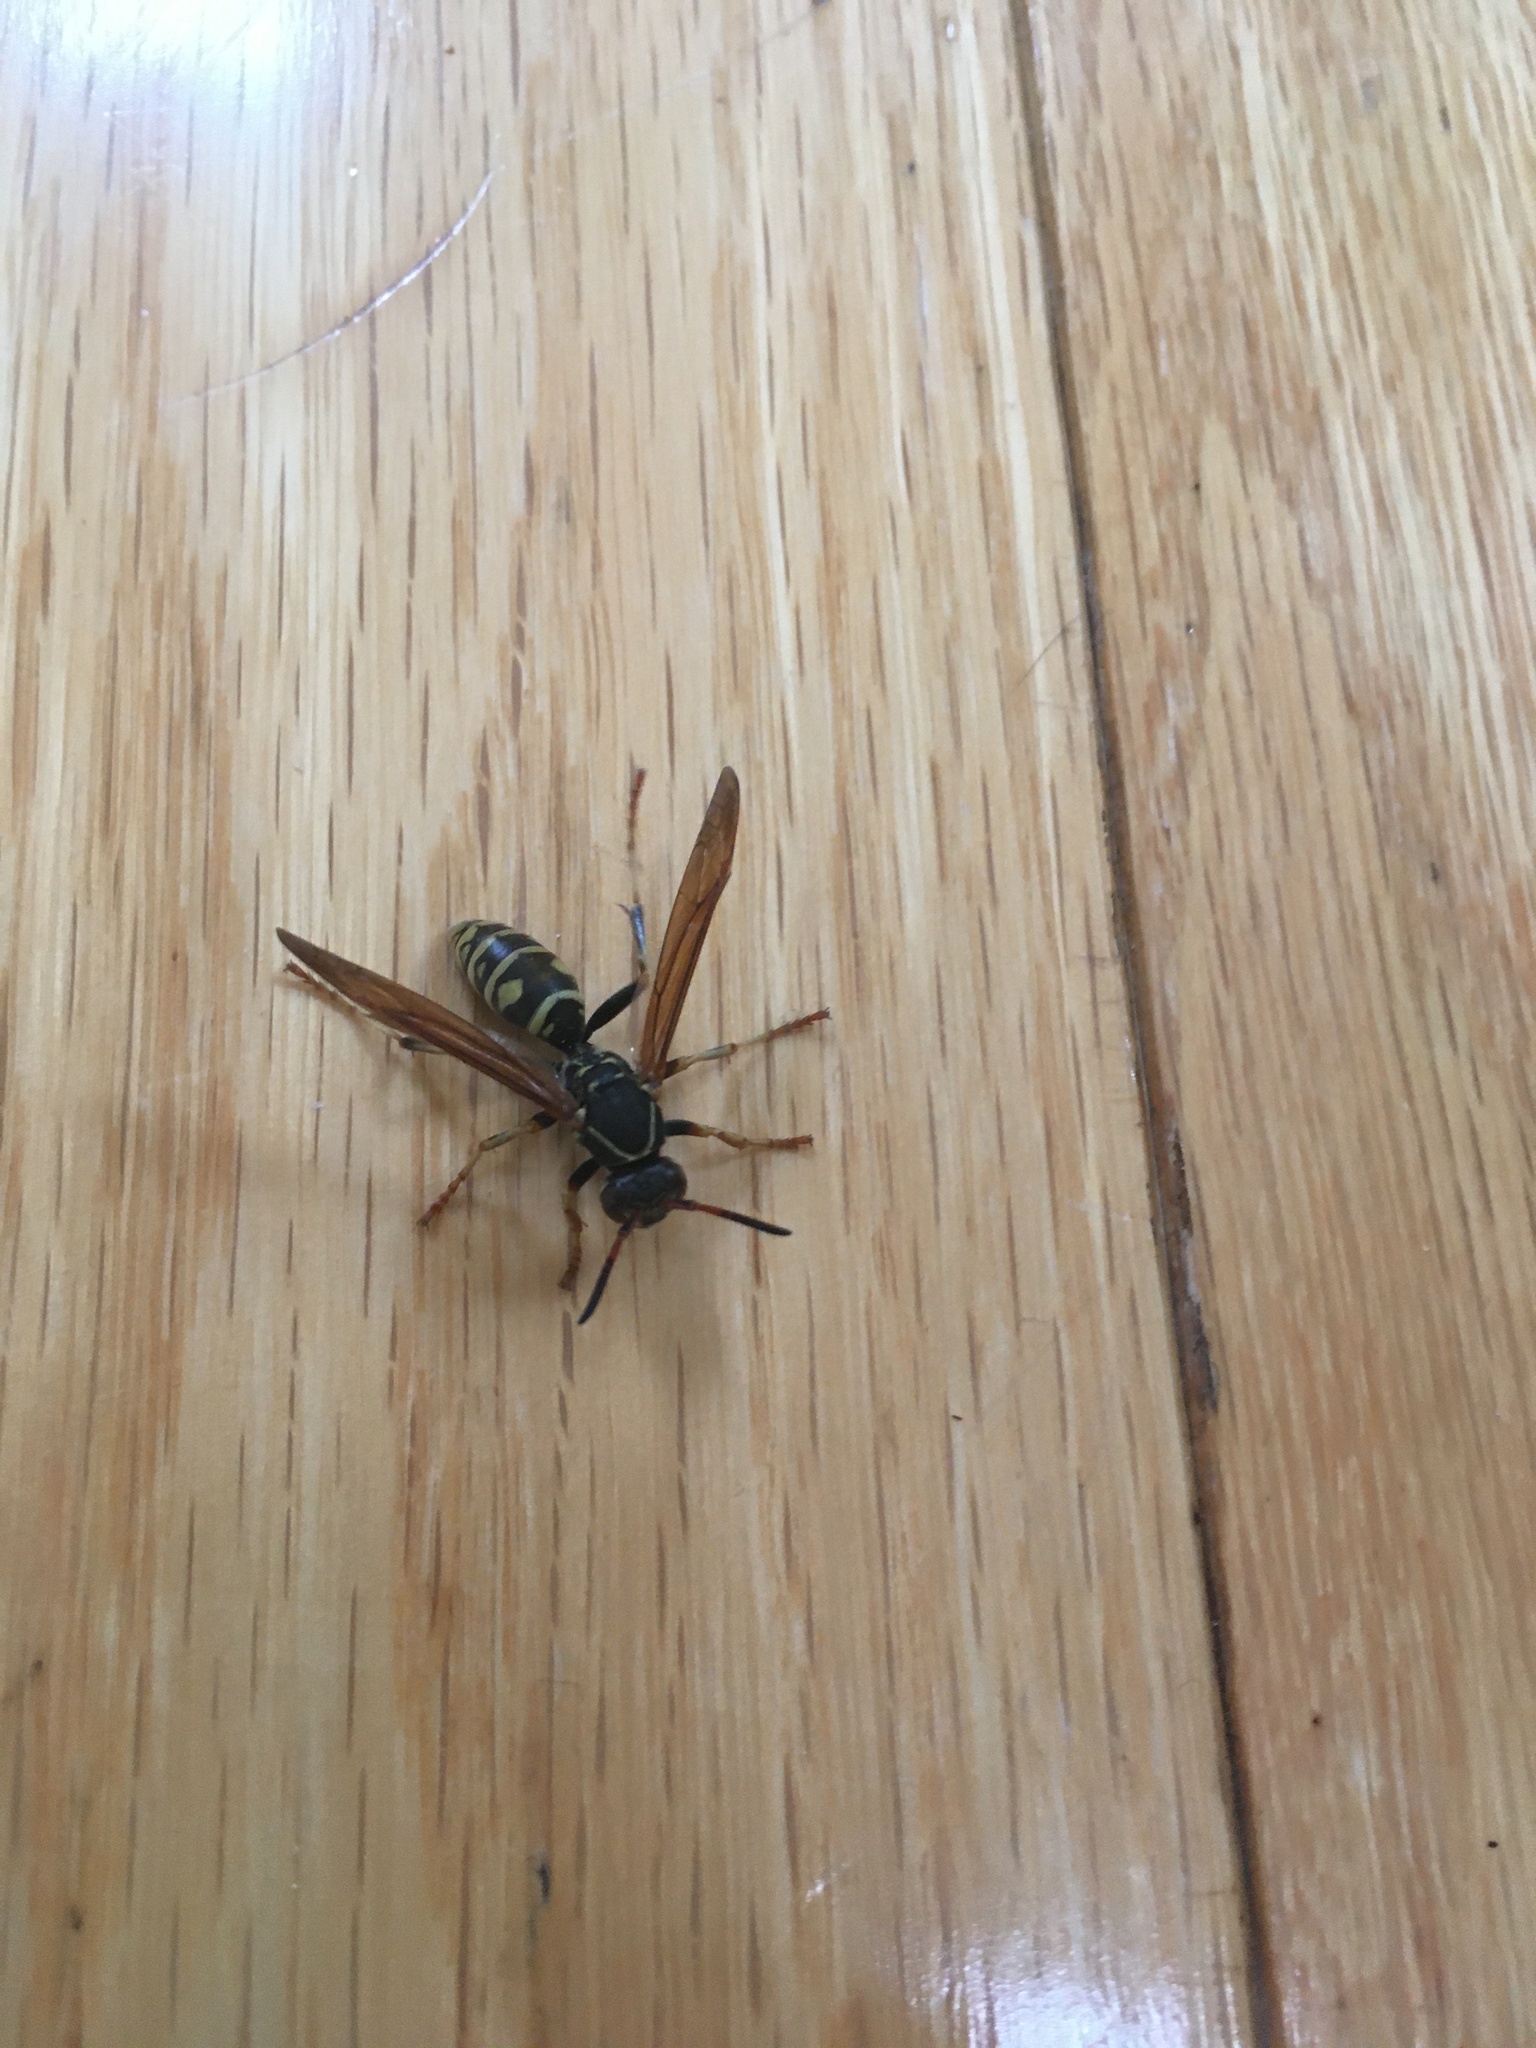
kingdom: Animalia
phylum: Arthropoda
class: Insecta
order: Hymenoptera
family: Eumenidae
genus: Polistes
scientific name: Polistes aurifer
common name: Paper wasp
